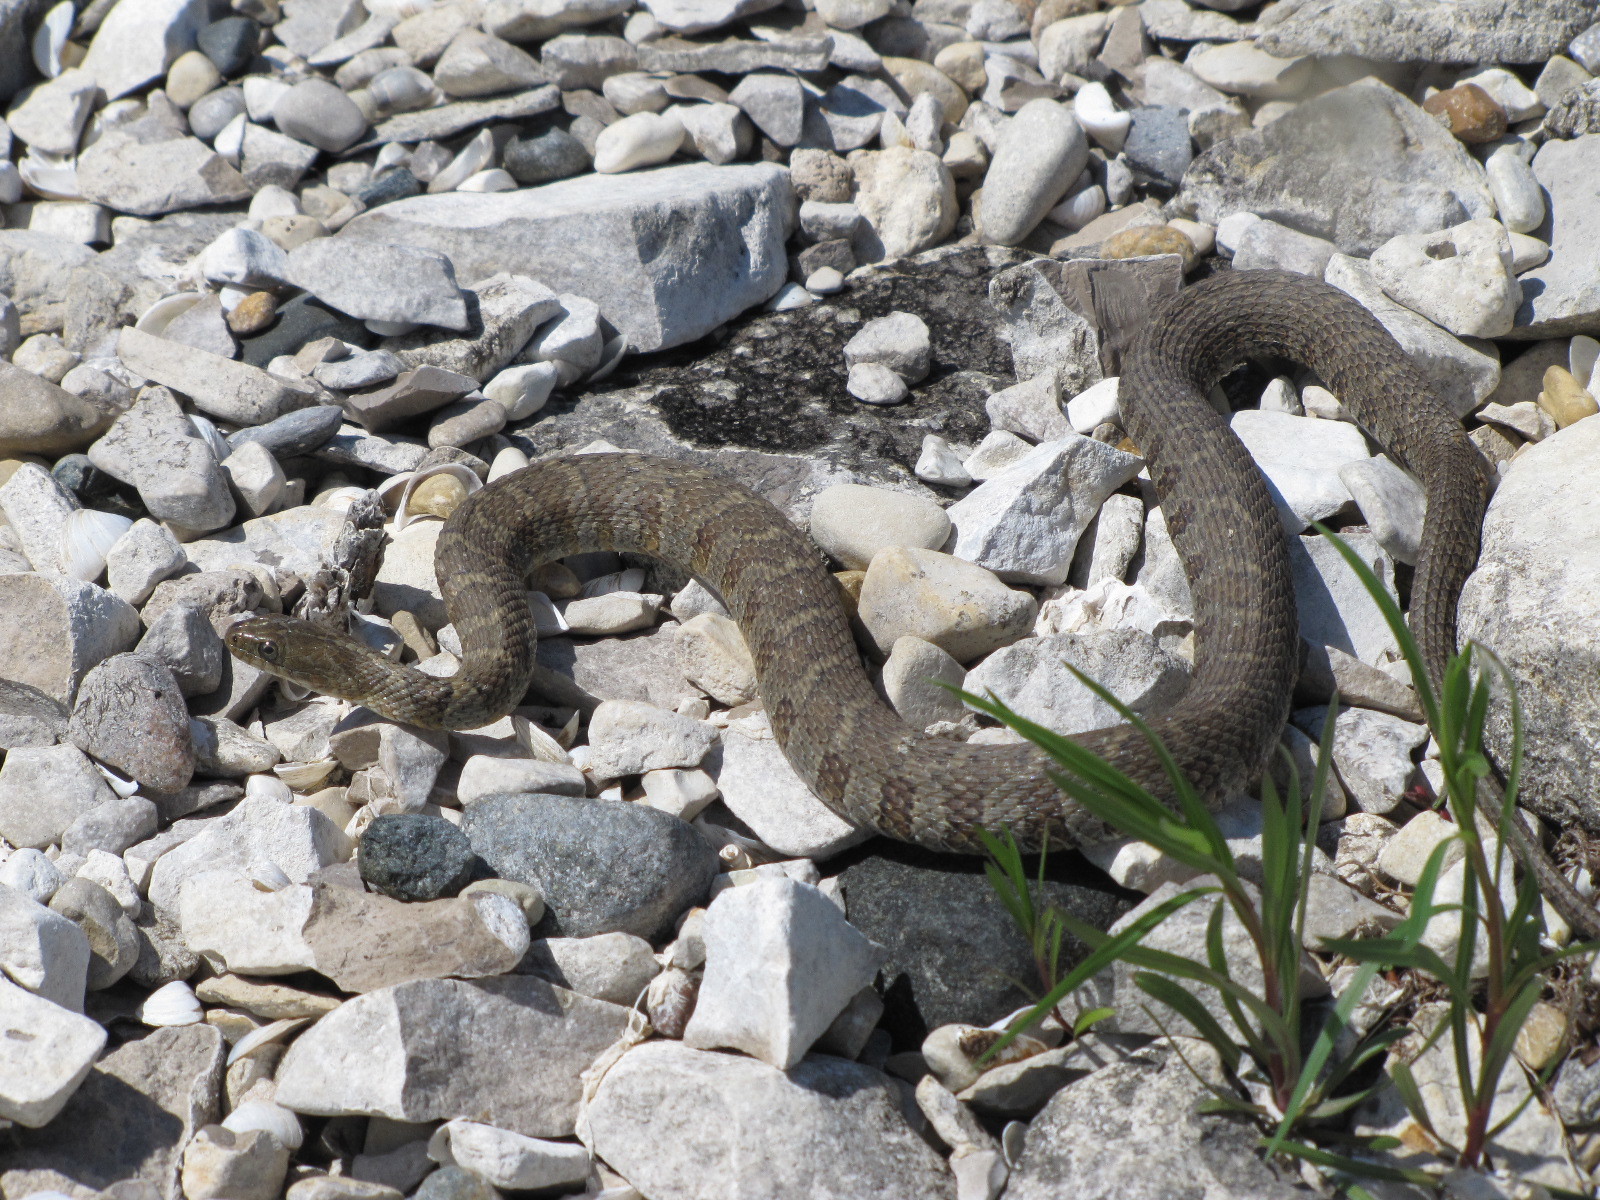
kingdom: Animalia
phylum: Chordata
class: Squamata
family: Colubridae
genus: Nerodia
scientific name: Nerodia sipedon
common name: Northern water snake
